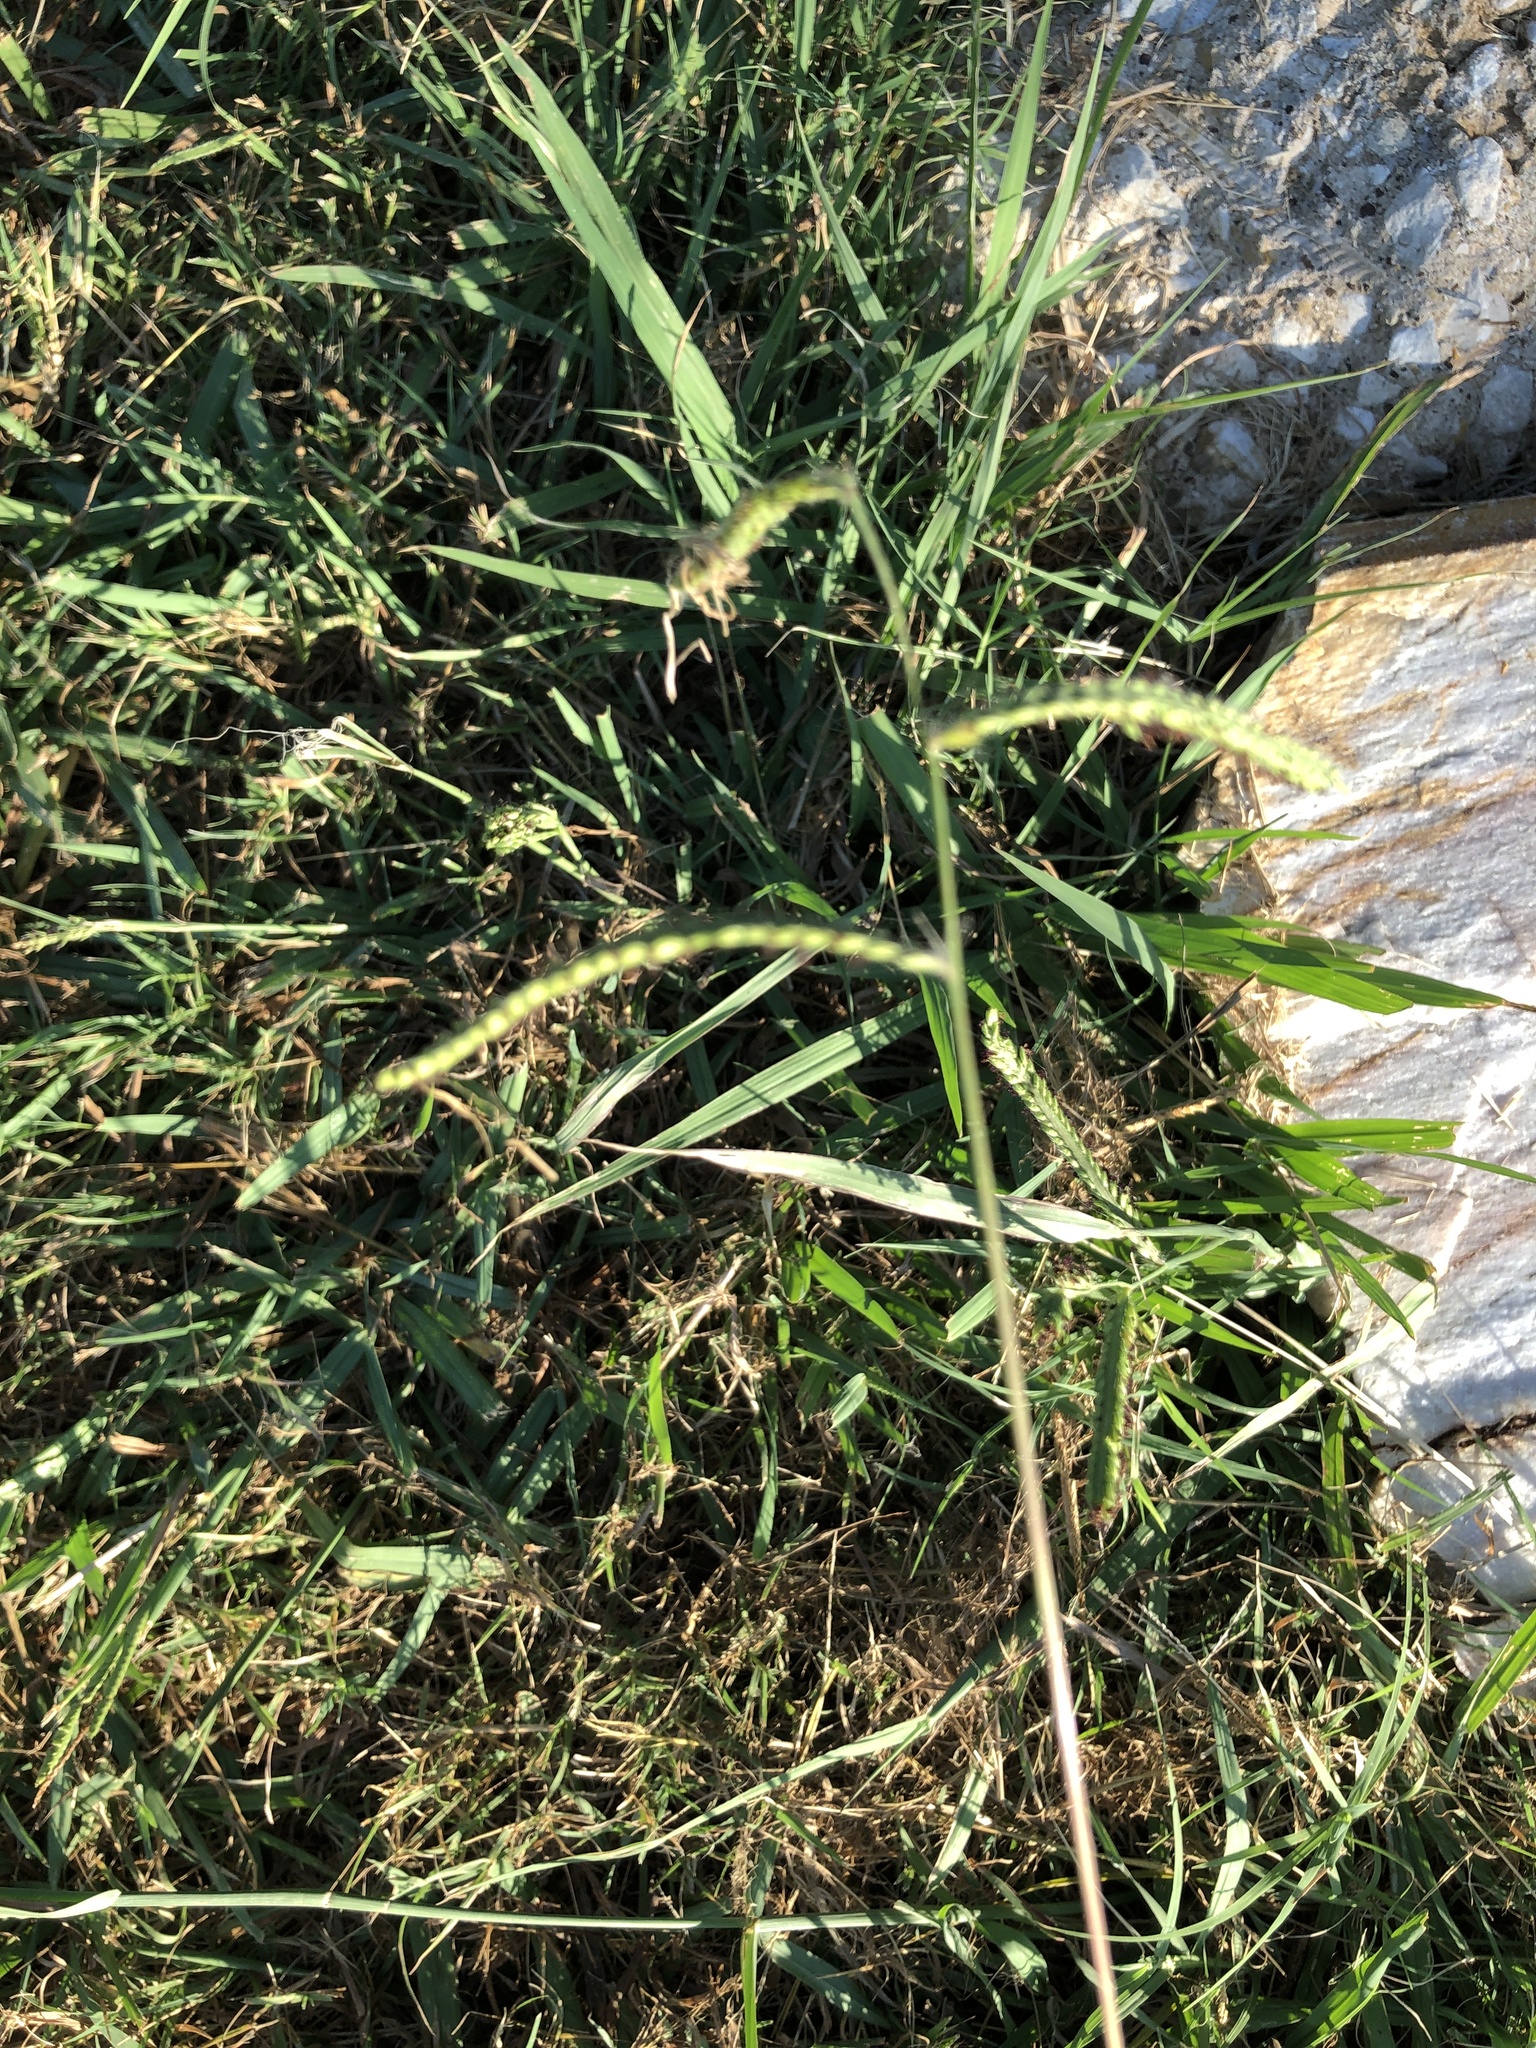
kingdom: Plantae
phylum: Tracheophyta
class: Liliopsida
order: Poales
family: Poaceae
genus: Paspalum
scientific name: Paspalum dilatatum
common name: Dallisgrass
